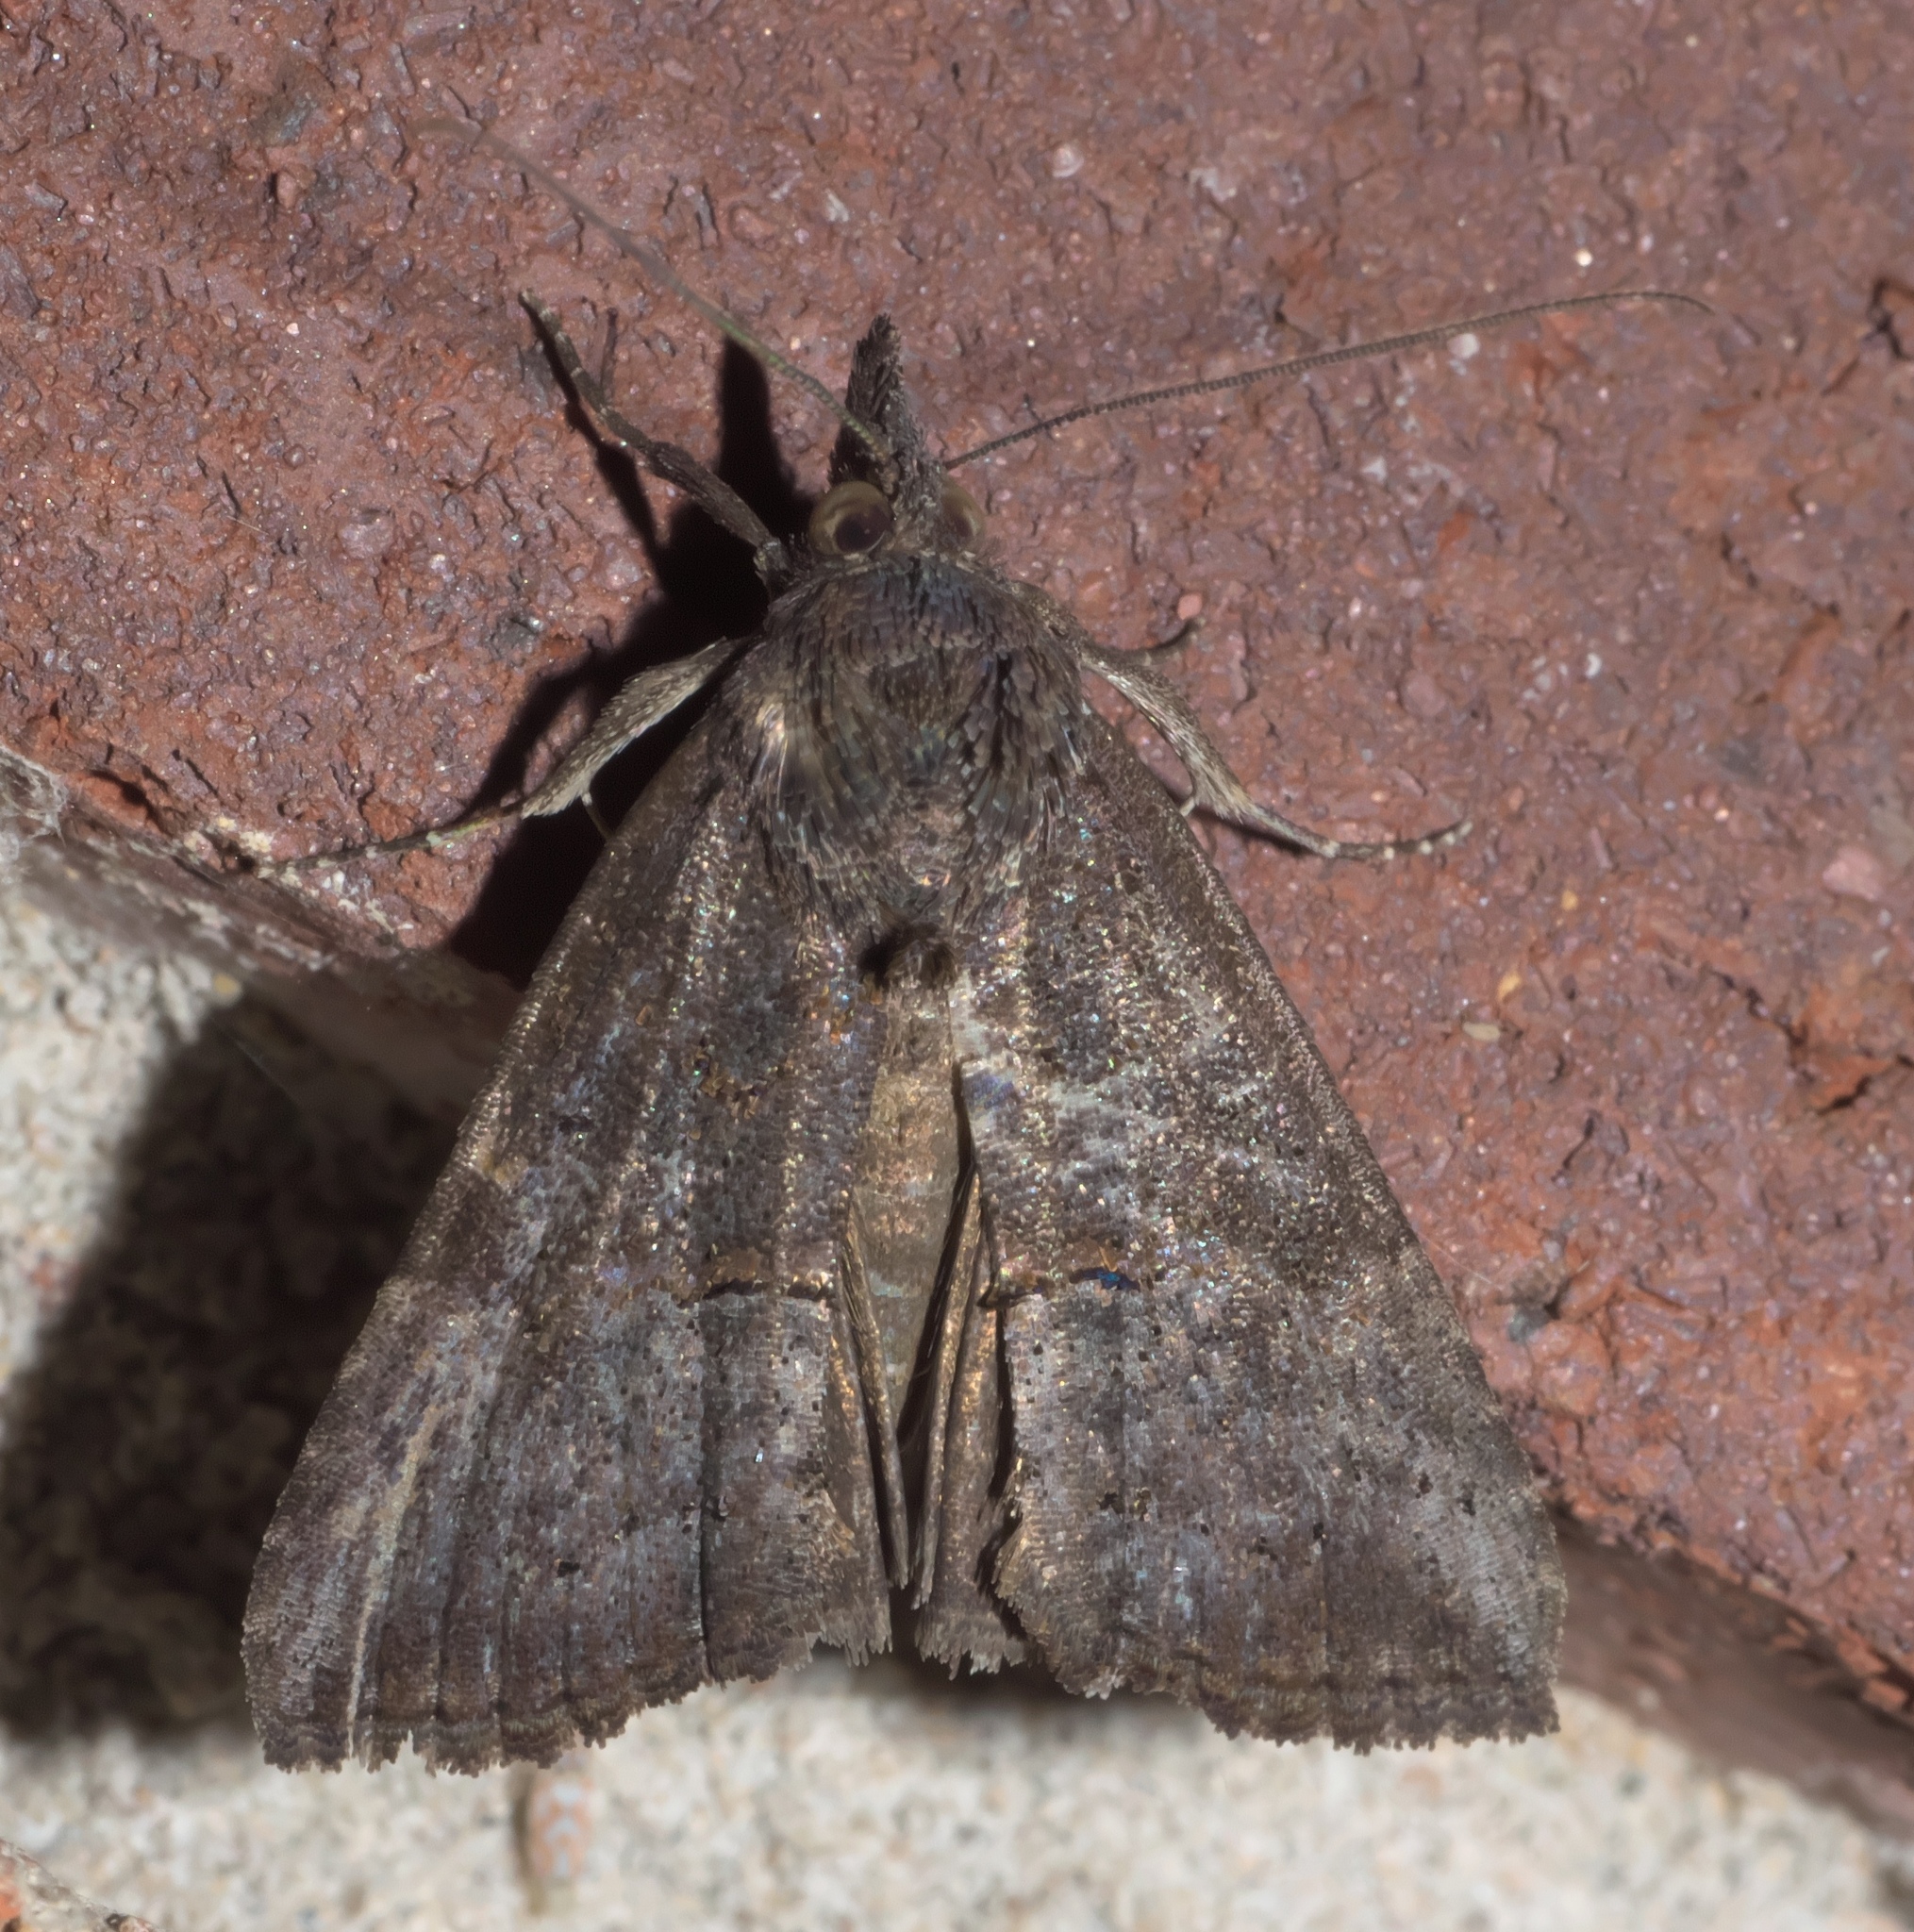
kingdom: Animalia
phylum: Arthropoda
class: Insecta
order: Lepidoptera
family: Erebidae
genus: Hypena
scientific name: Hypena scabra
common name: Green cloverworm
